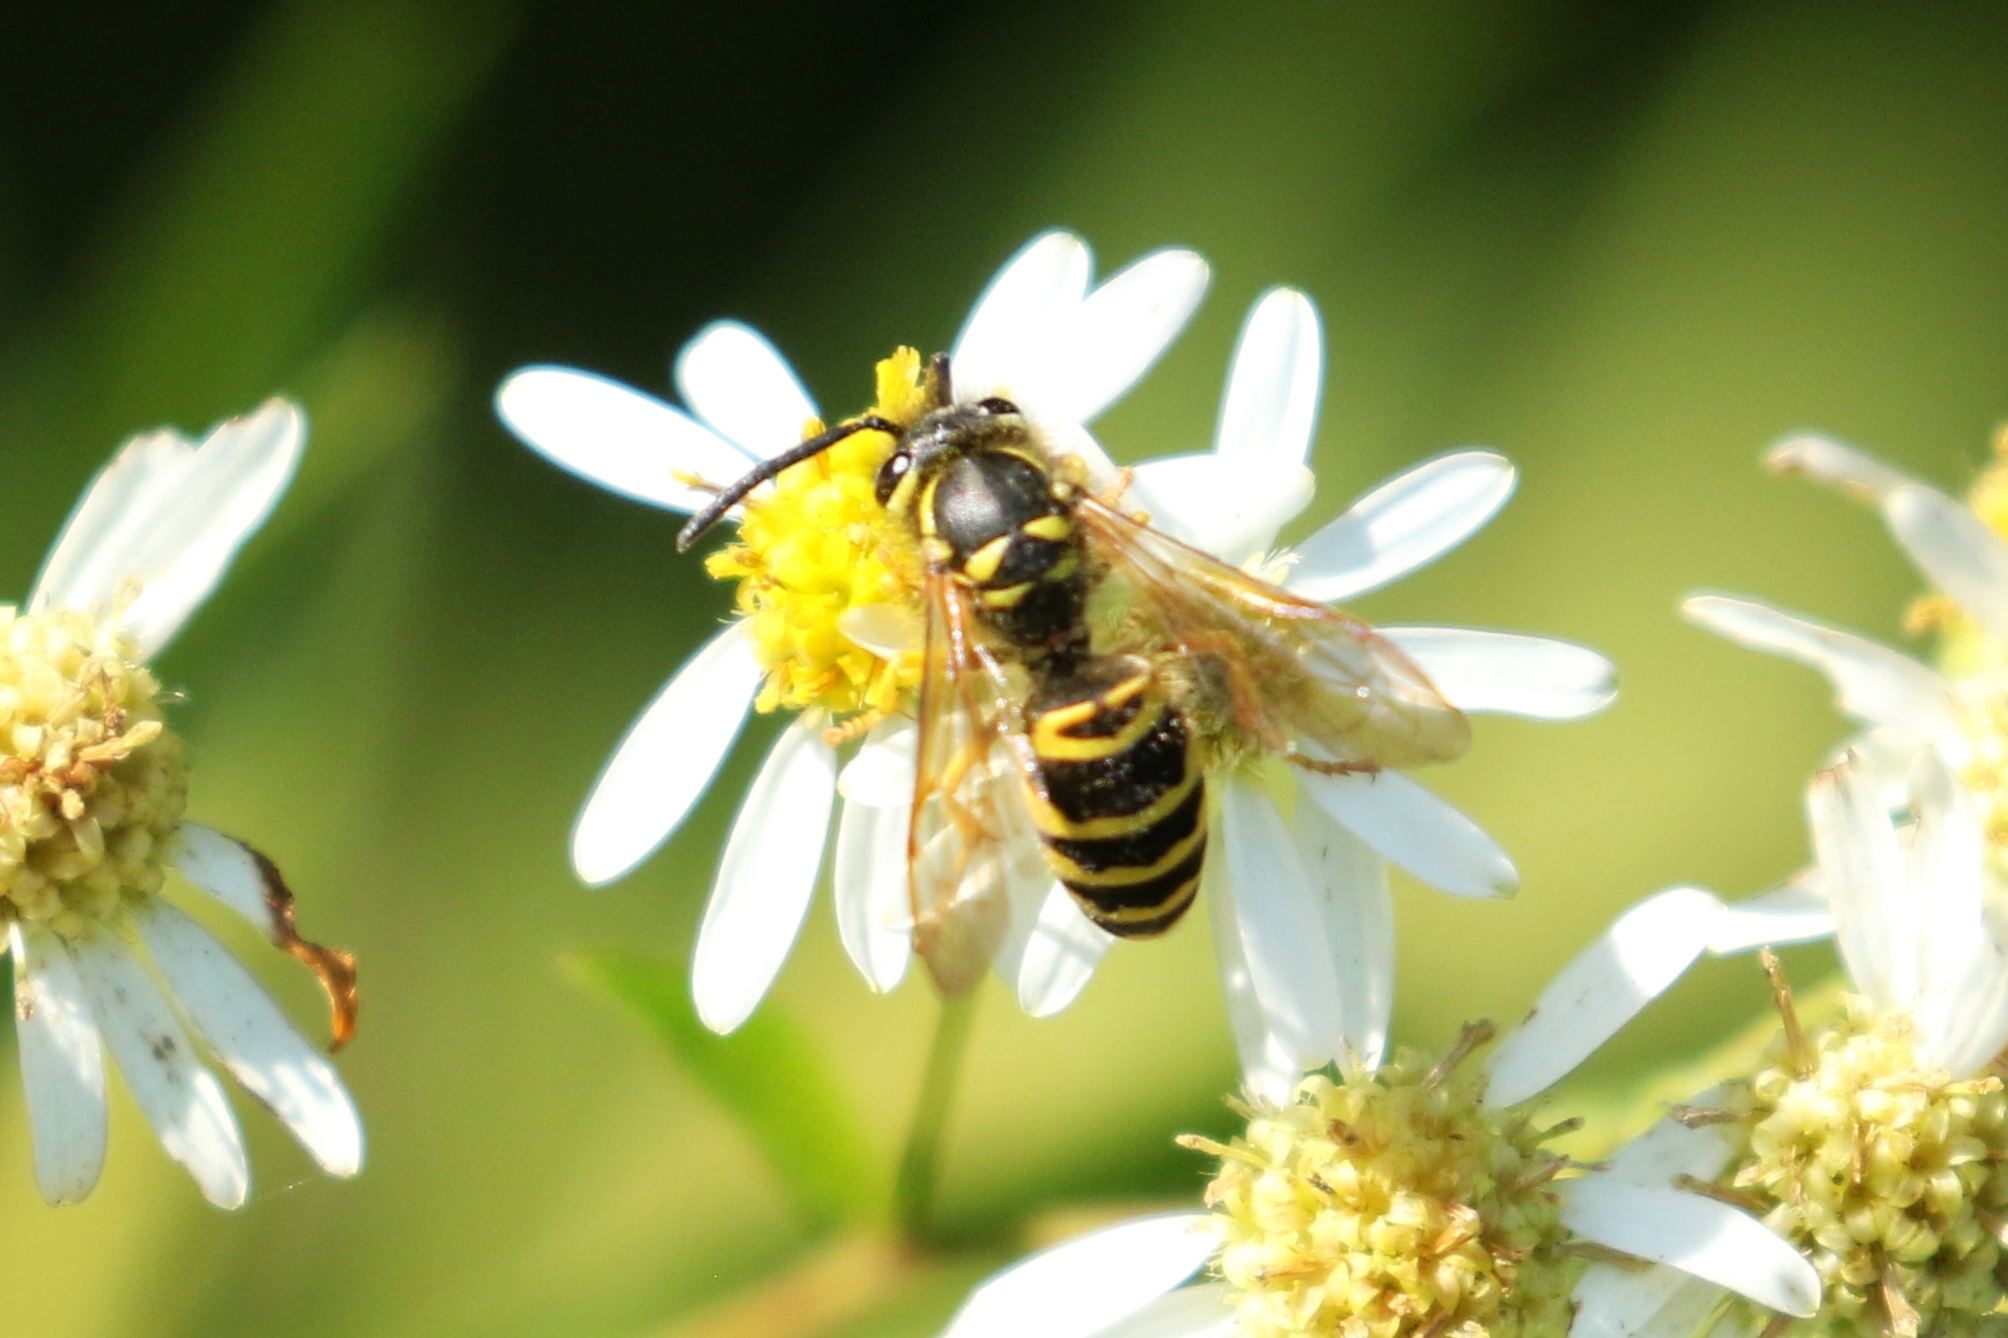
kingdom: Animalia
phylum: Arthropoda
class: Insecta
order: Hymenoptera
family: Vespidae
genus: Vespula
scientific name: Vespula maculifrons
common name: Eastern yellowjacket
